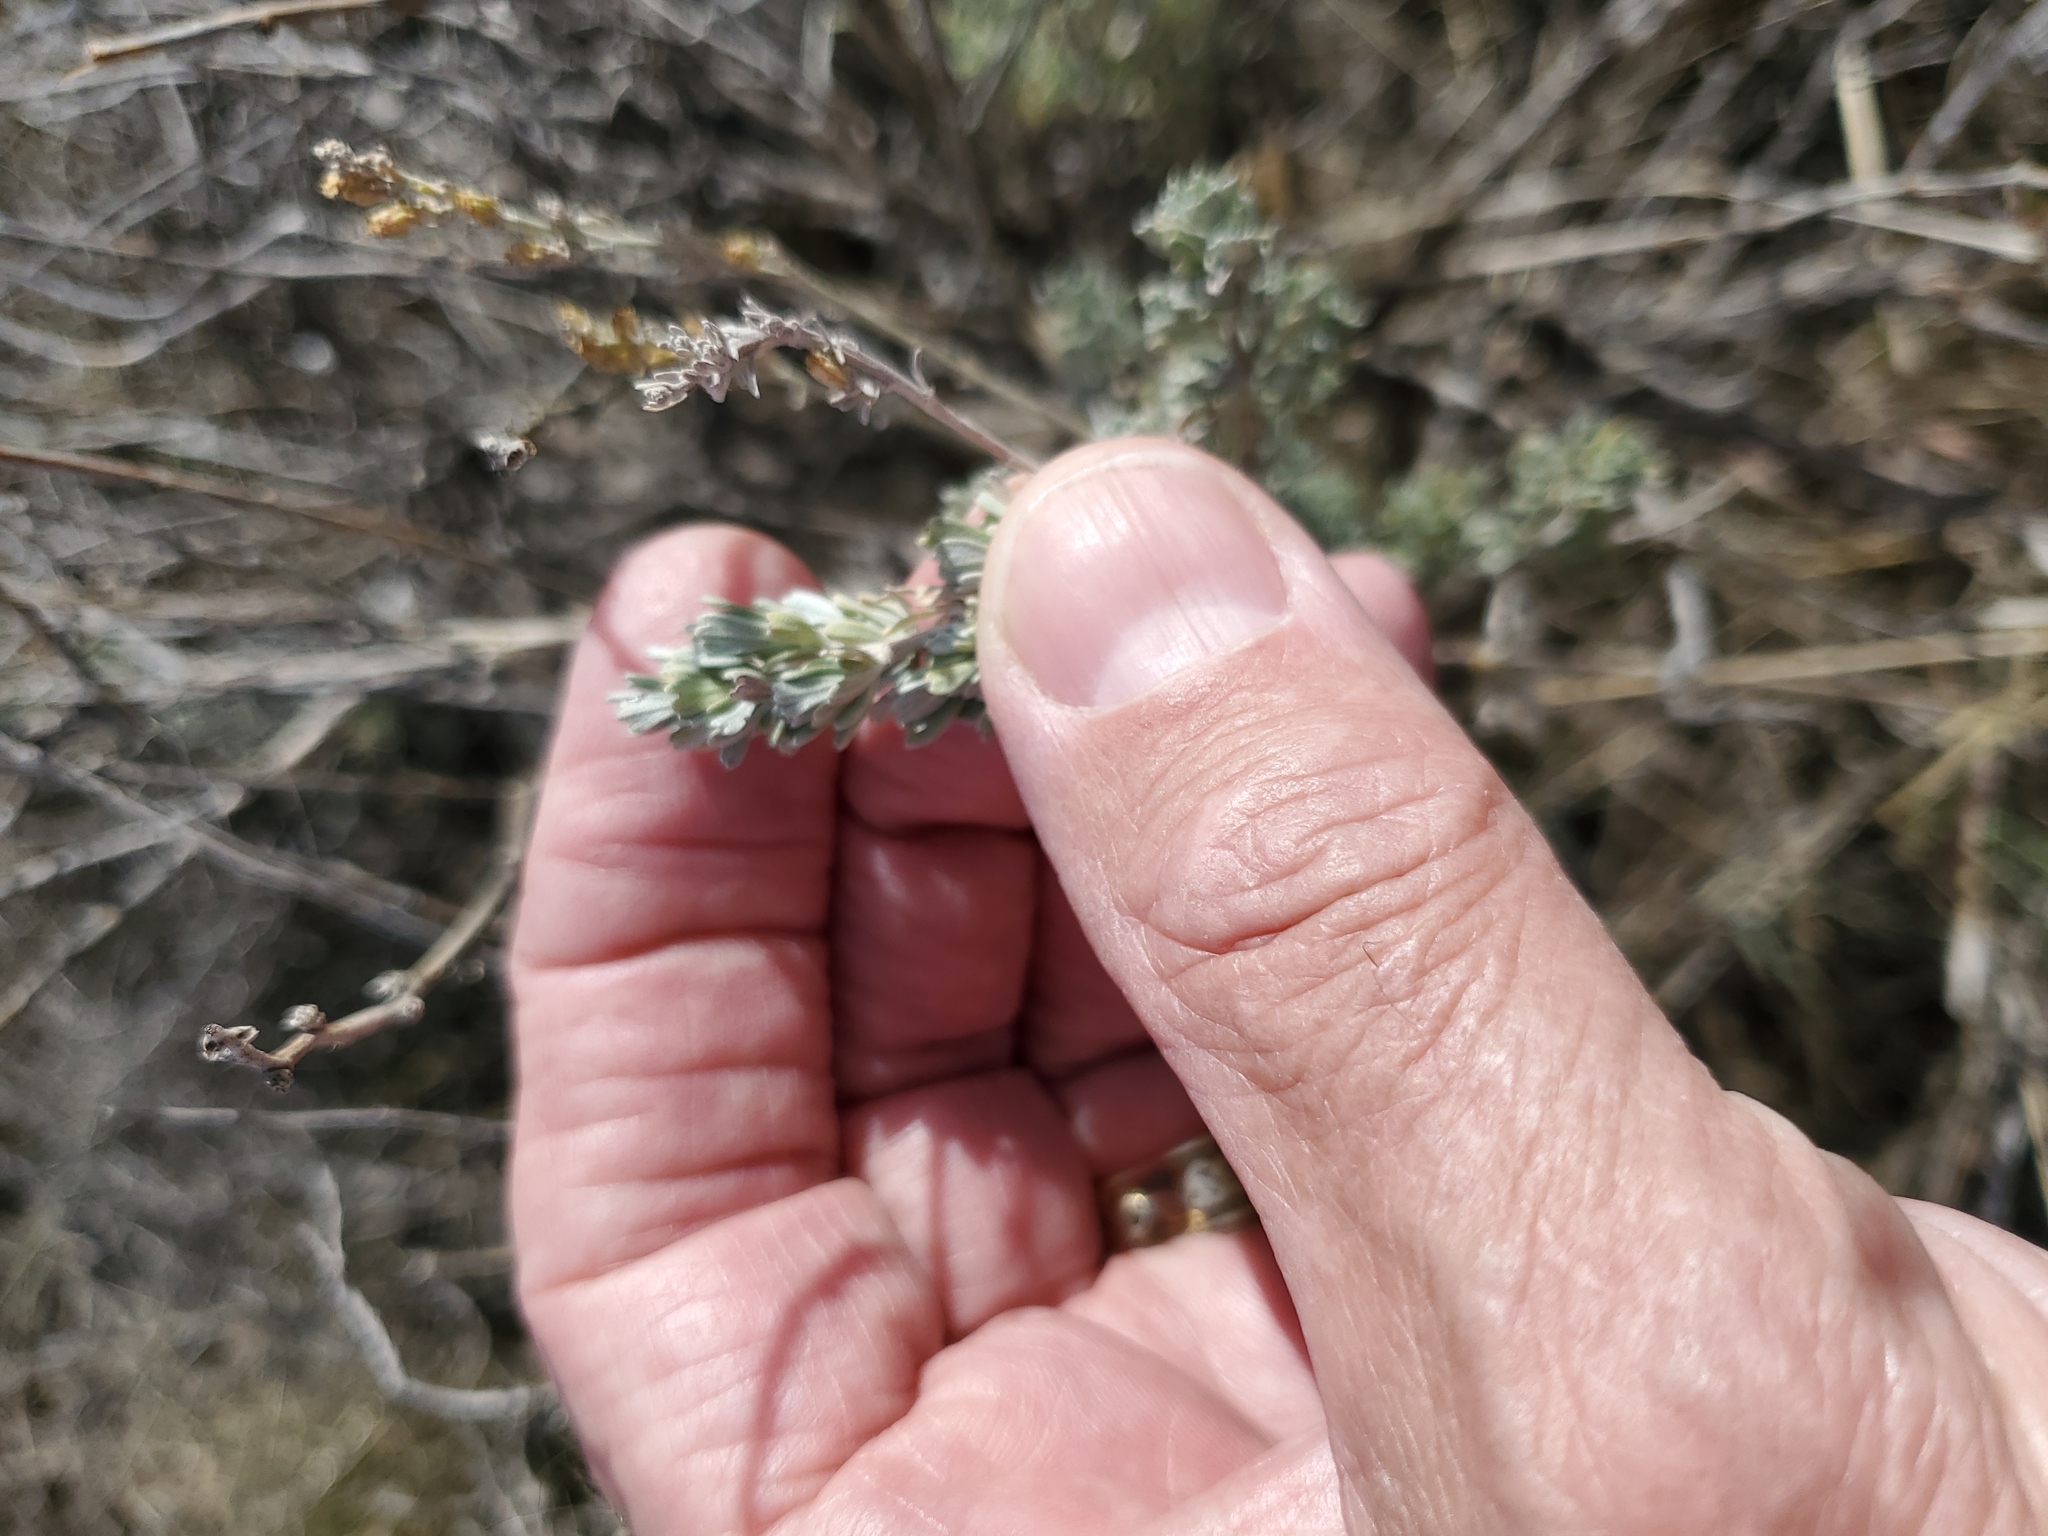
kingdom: Plantae
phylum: Tracheophyta
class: Magnoliopsida
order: Asterales
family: Asteraceae
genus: Artemisia
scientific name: Artemisia tridentata
